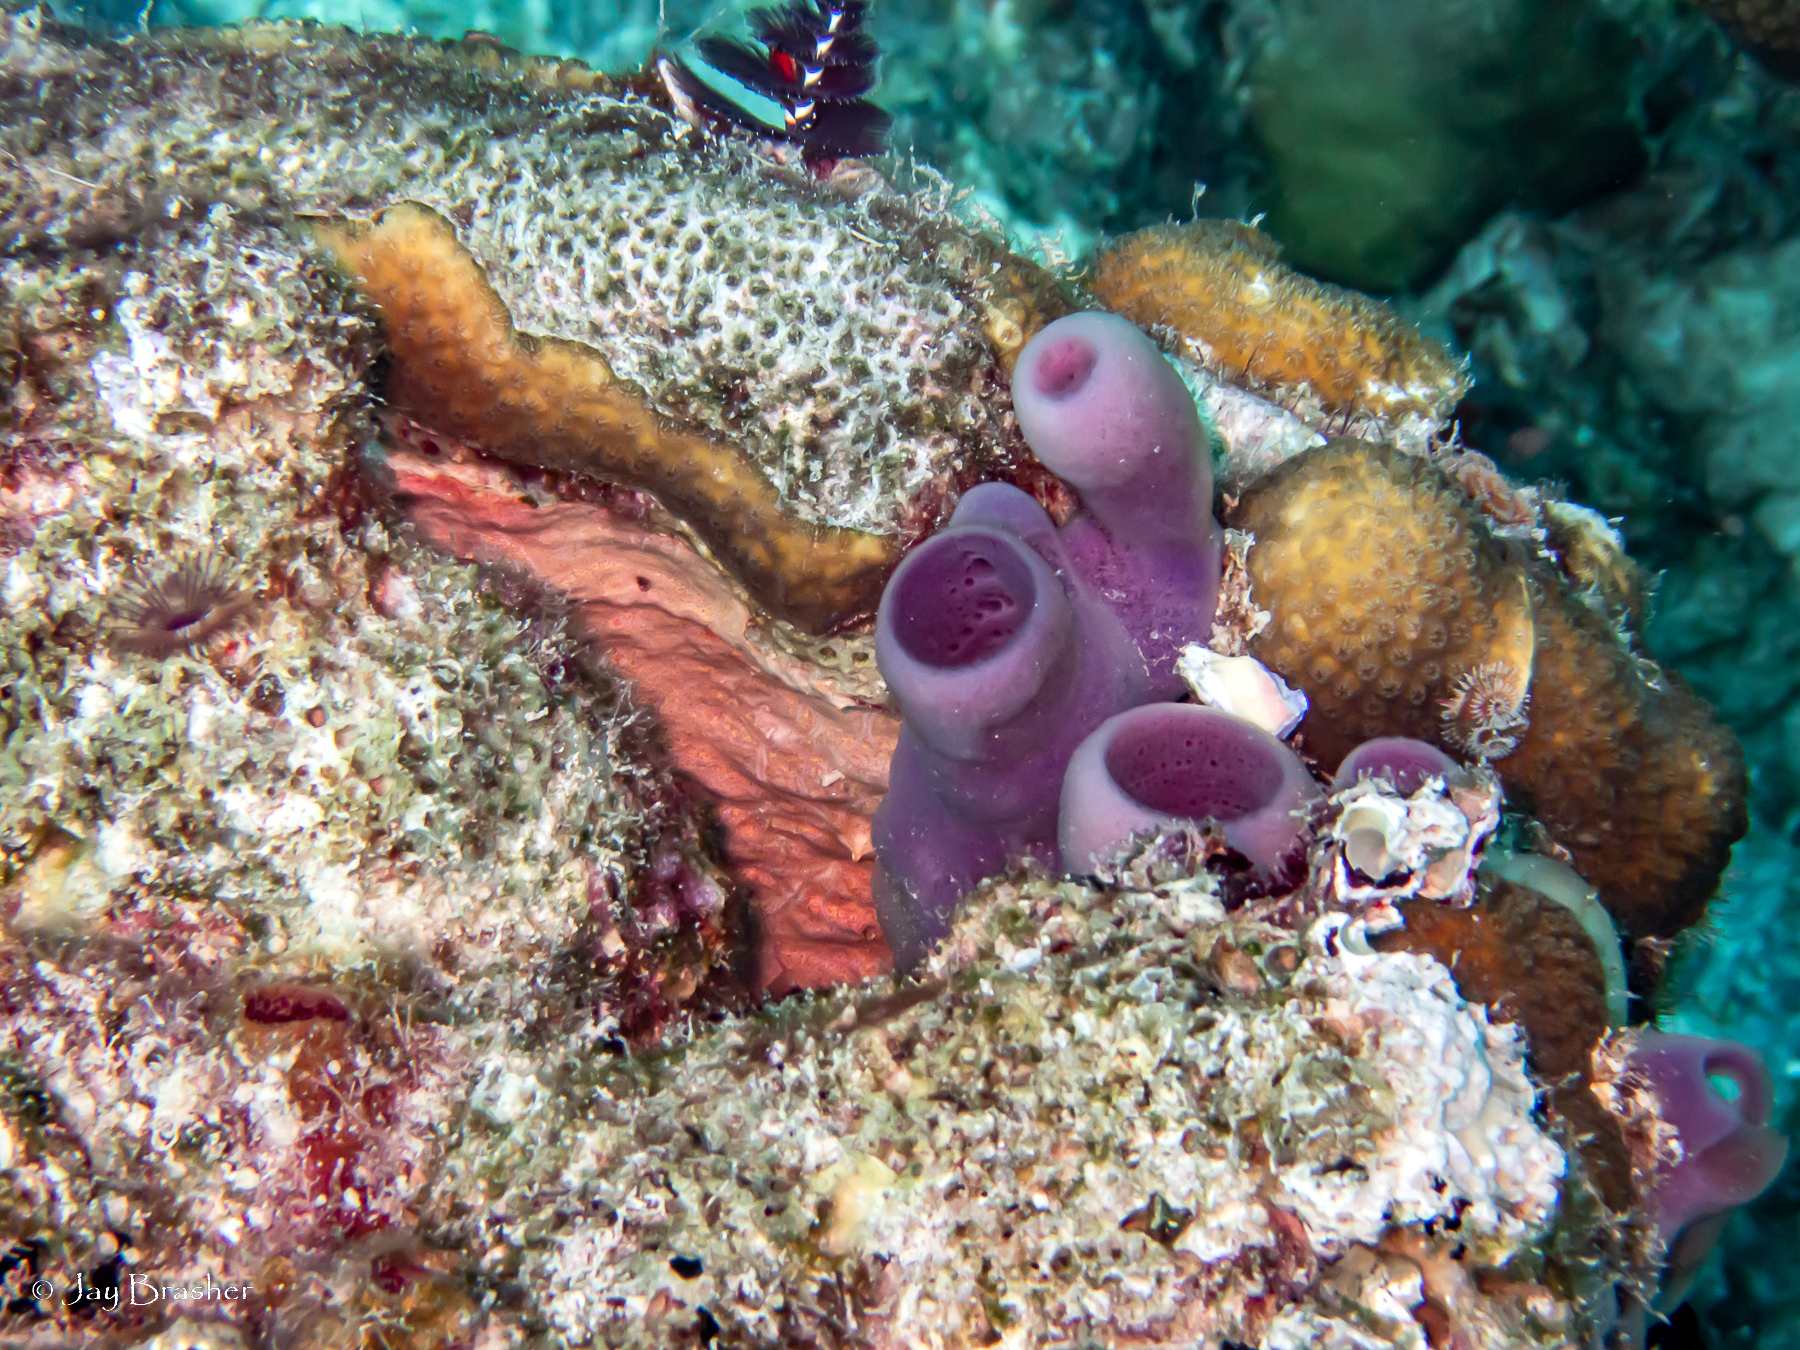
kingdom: Animalia
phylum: Porifera
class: Demospongiae
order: Poecilosclerida
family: Microcionidae
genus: Clathria
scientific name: Clathria curacaoensis
